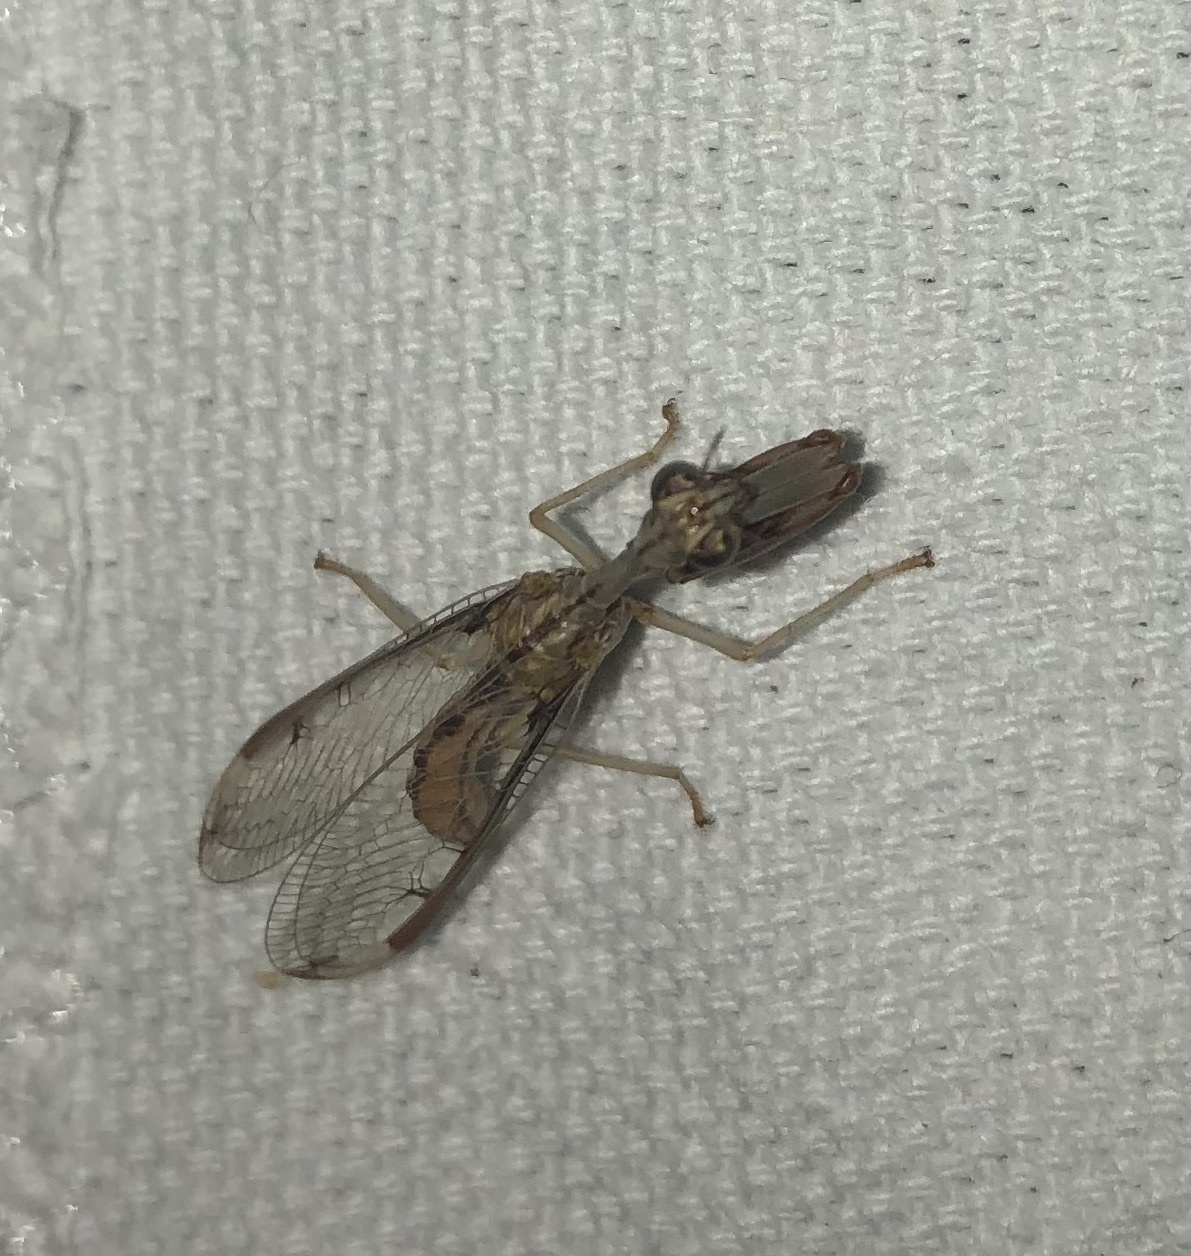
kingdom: Animalia
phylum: Arthropoda
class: Insecta
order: Neuroptera
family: Mantispidae
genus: Dicromantispa
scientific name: Dicromantispa interrupta
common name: Four-spotted mantidfly
